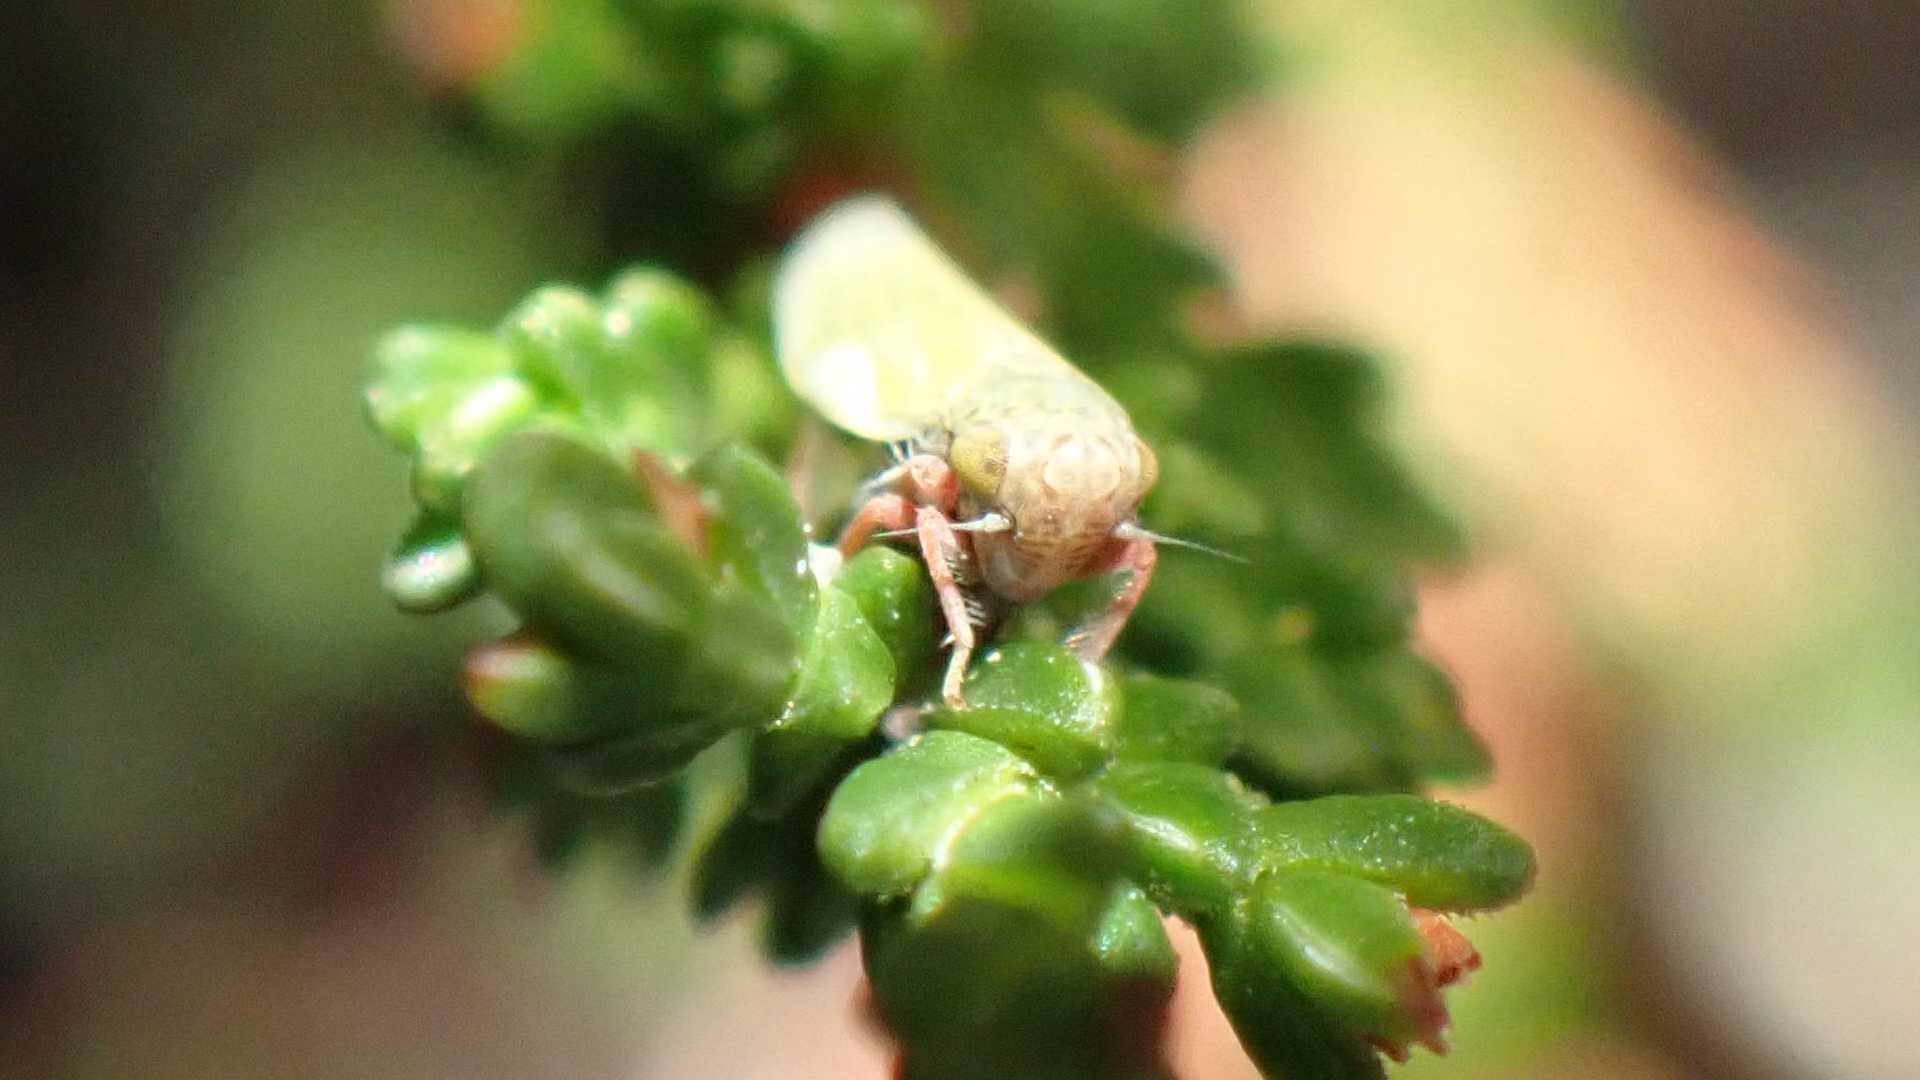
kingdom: Animalia
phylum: Arthropoda
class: Insecta
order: Hemiptera
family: Cicadellidae
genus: Erythria
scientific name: Erythria aureola
